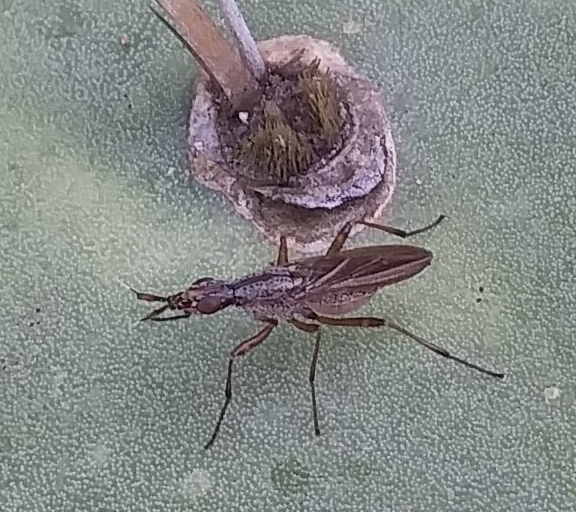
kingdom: Animalia
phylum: Arthropoda
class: Insecta
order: Diptera
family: Neriidae
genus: Odontoloxozus
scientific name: Odontoloxozus longicornis
